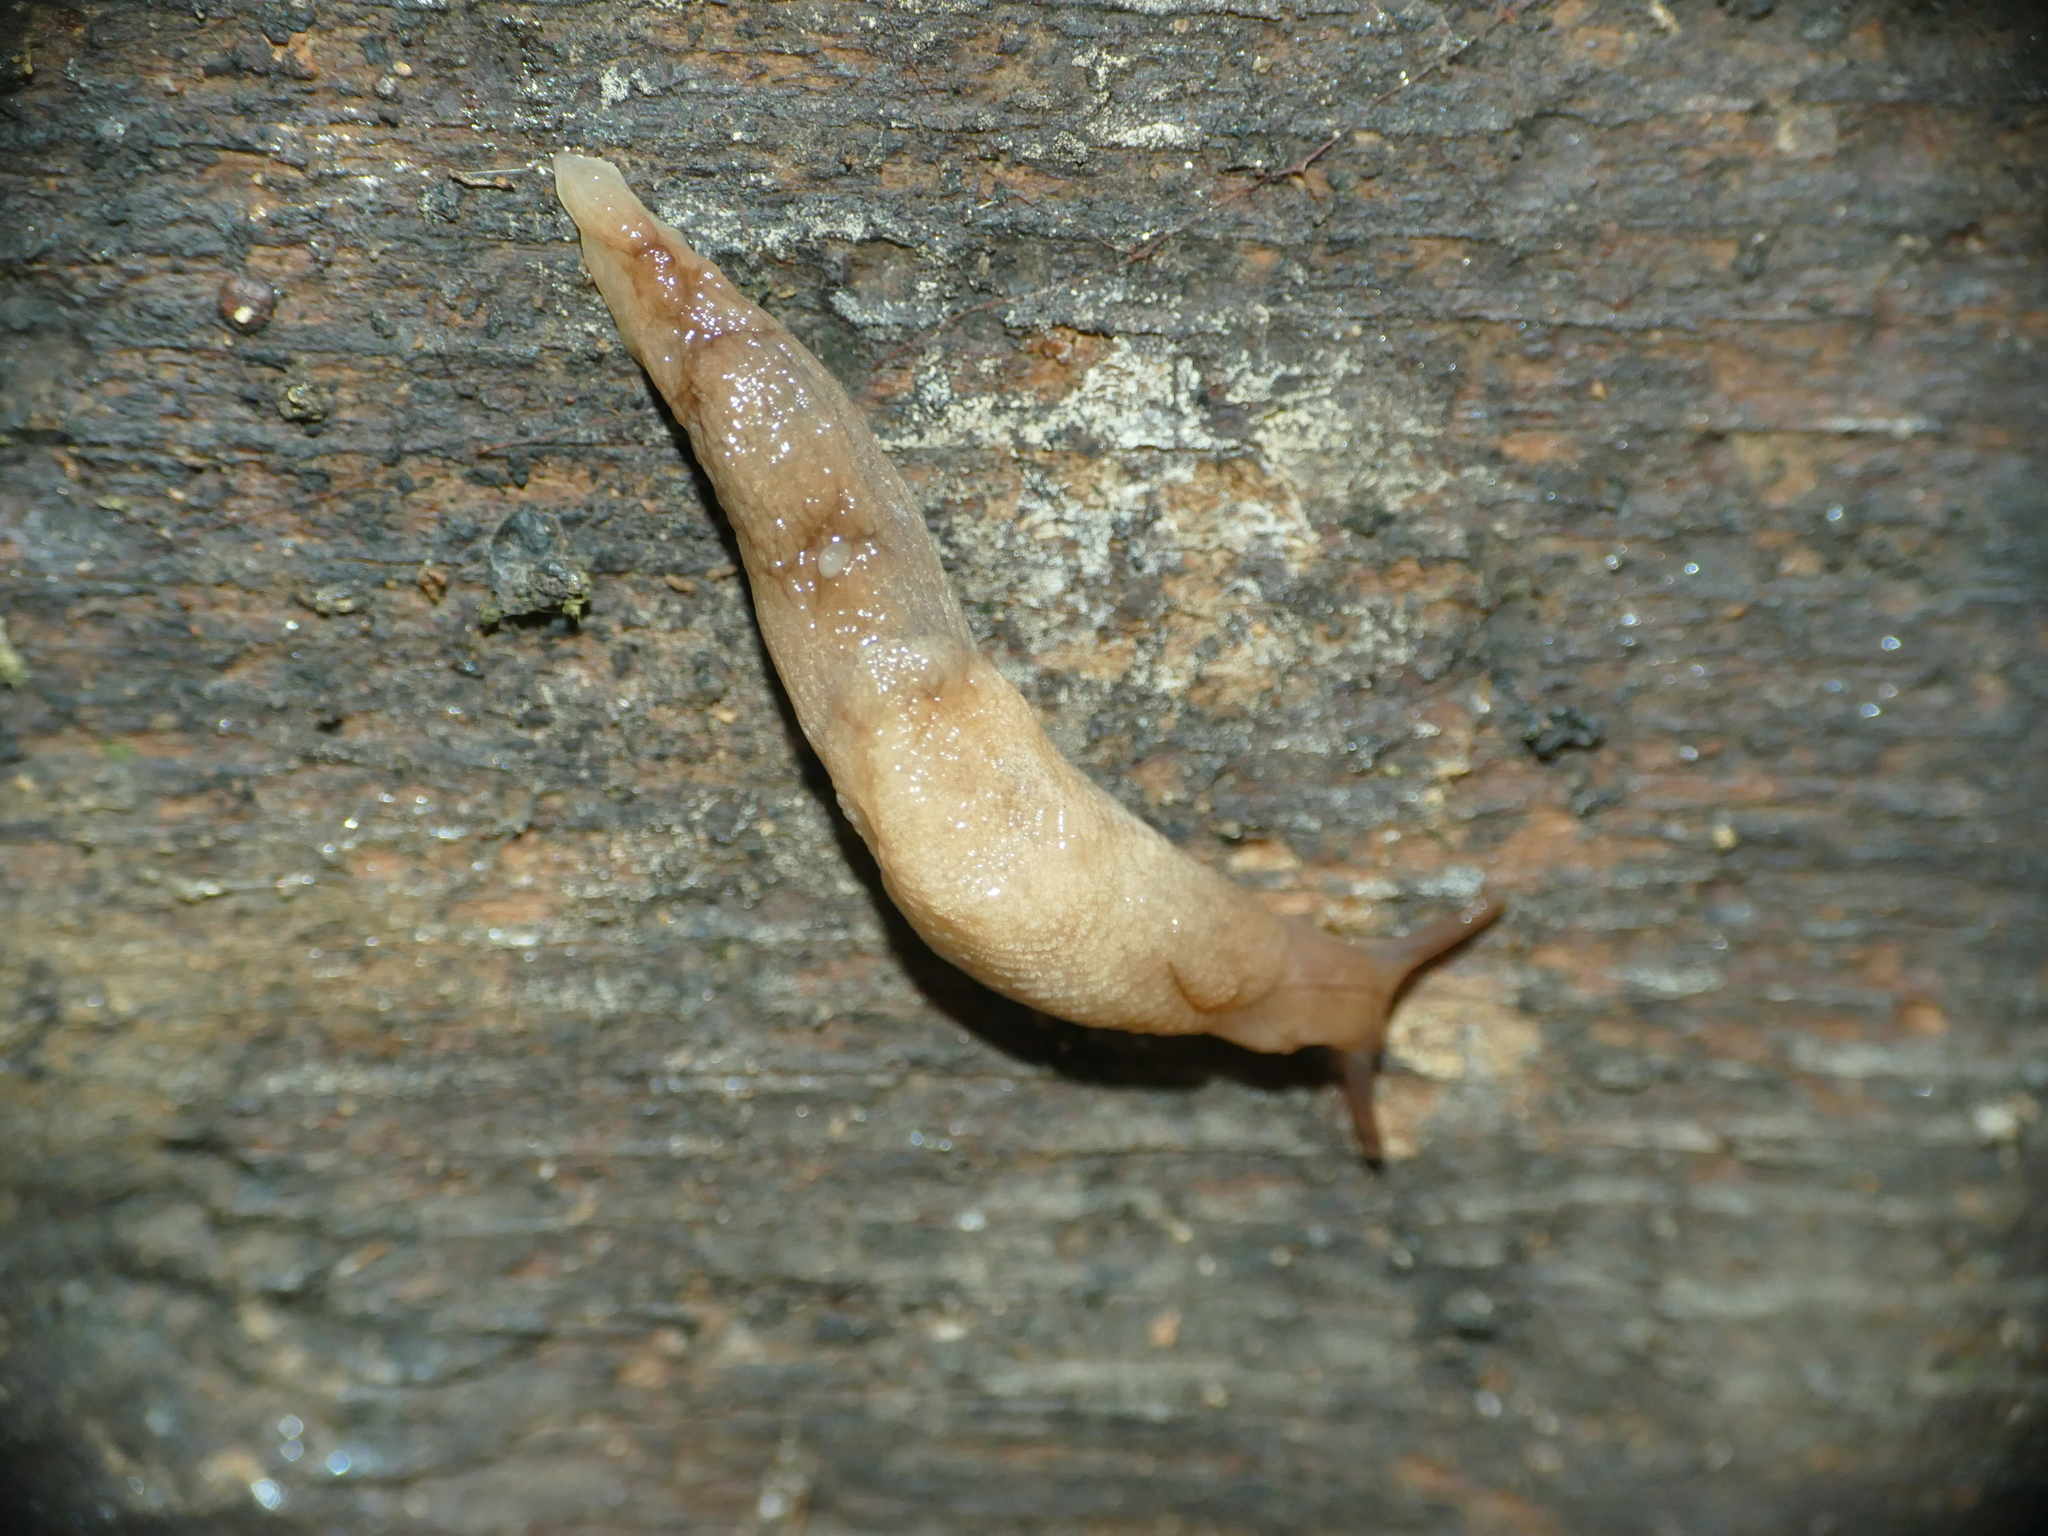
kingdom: Animalia
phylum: Mollusca
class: Gastropoda
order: Stylommatophora
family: Agriolimacidae
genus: Deroceras
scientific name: Deroceras reticulatum
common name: Gray field slug
